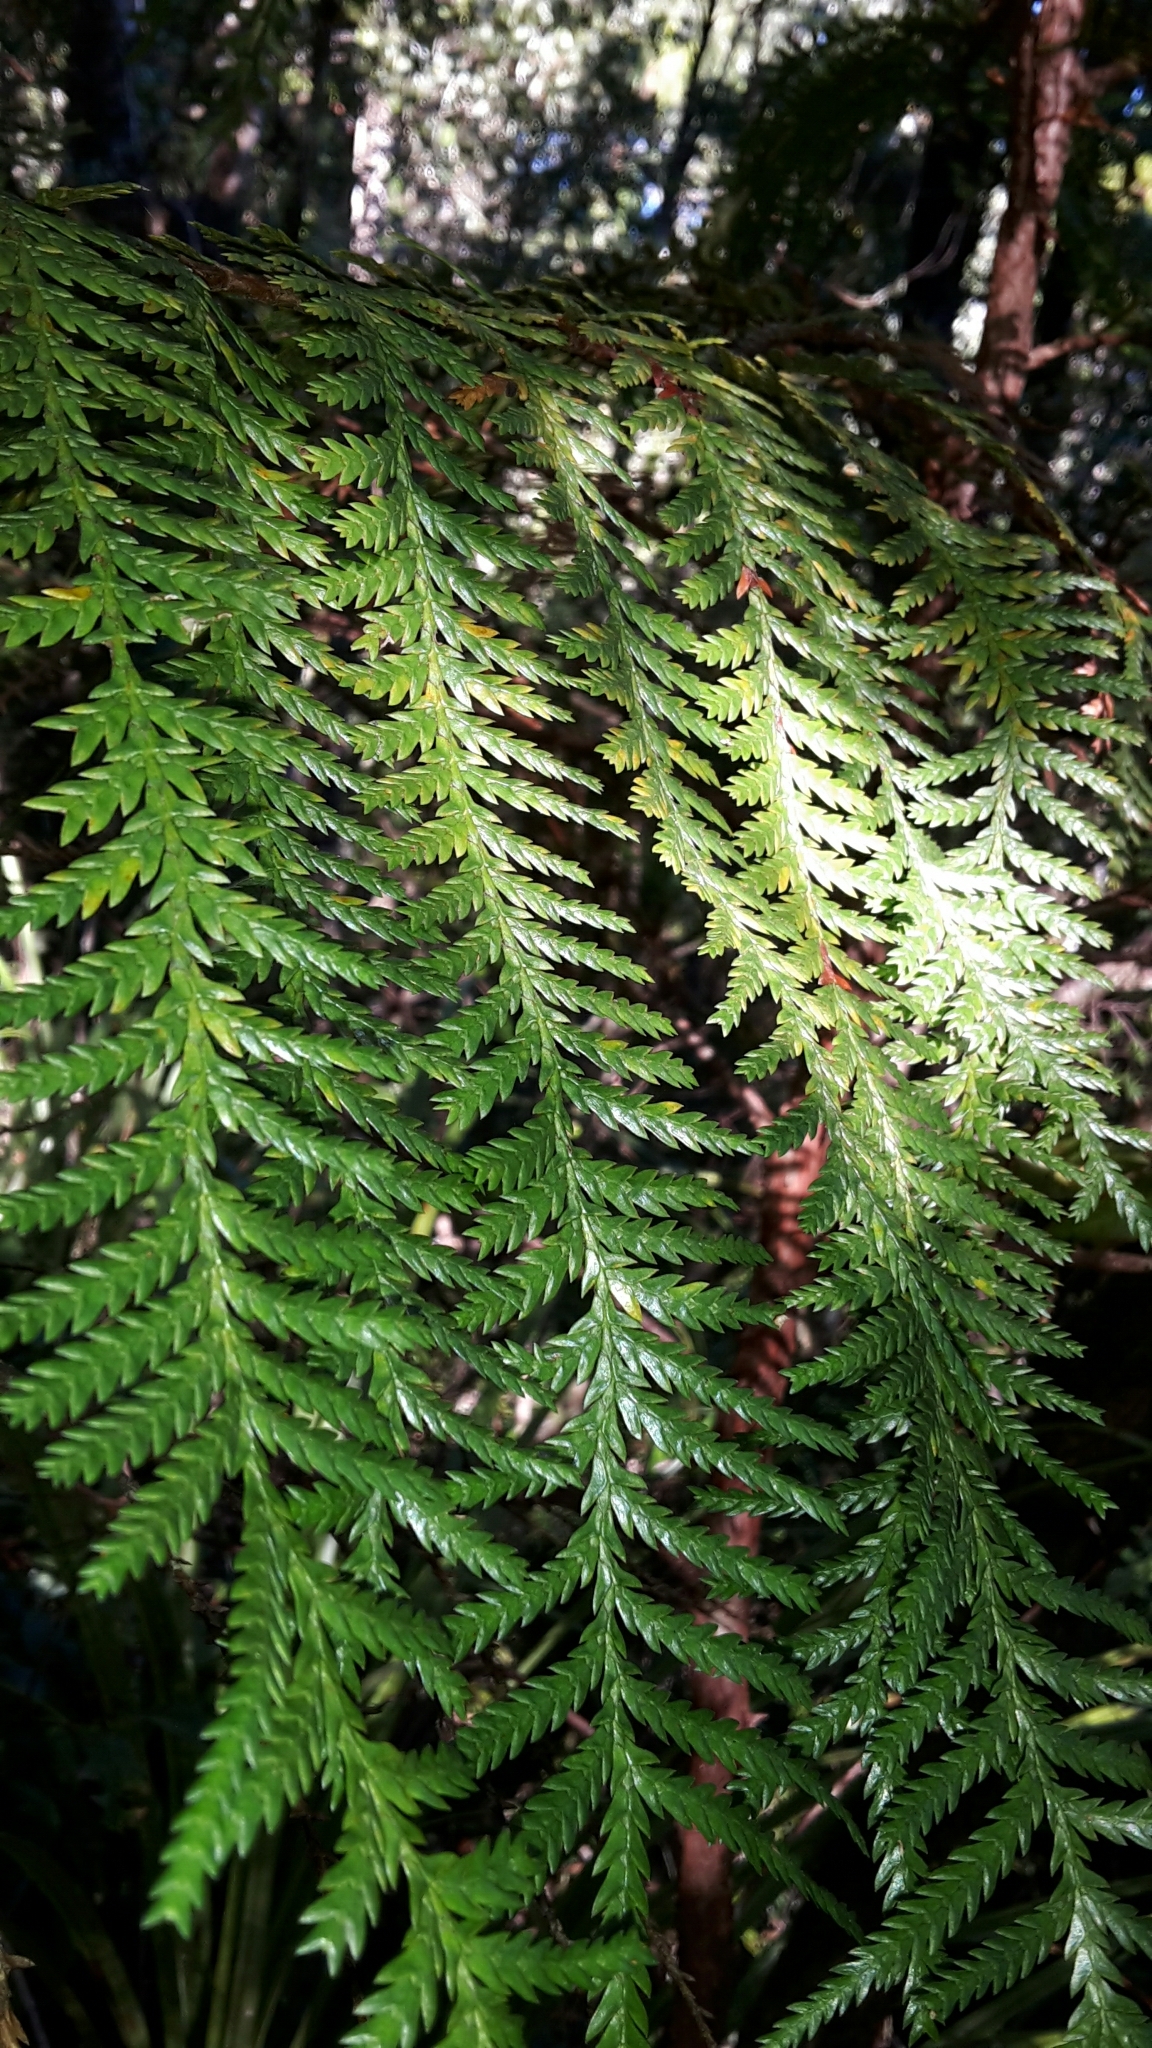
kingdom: Plantae
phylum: Tracheophyta
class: Pinopsida
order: Pinales
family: Cupressaceae
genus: Libocedrus
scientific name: Libocedrus plumosa
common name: New zealand cedar
